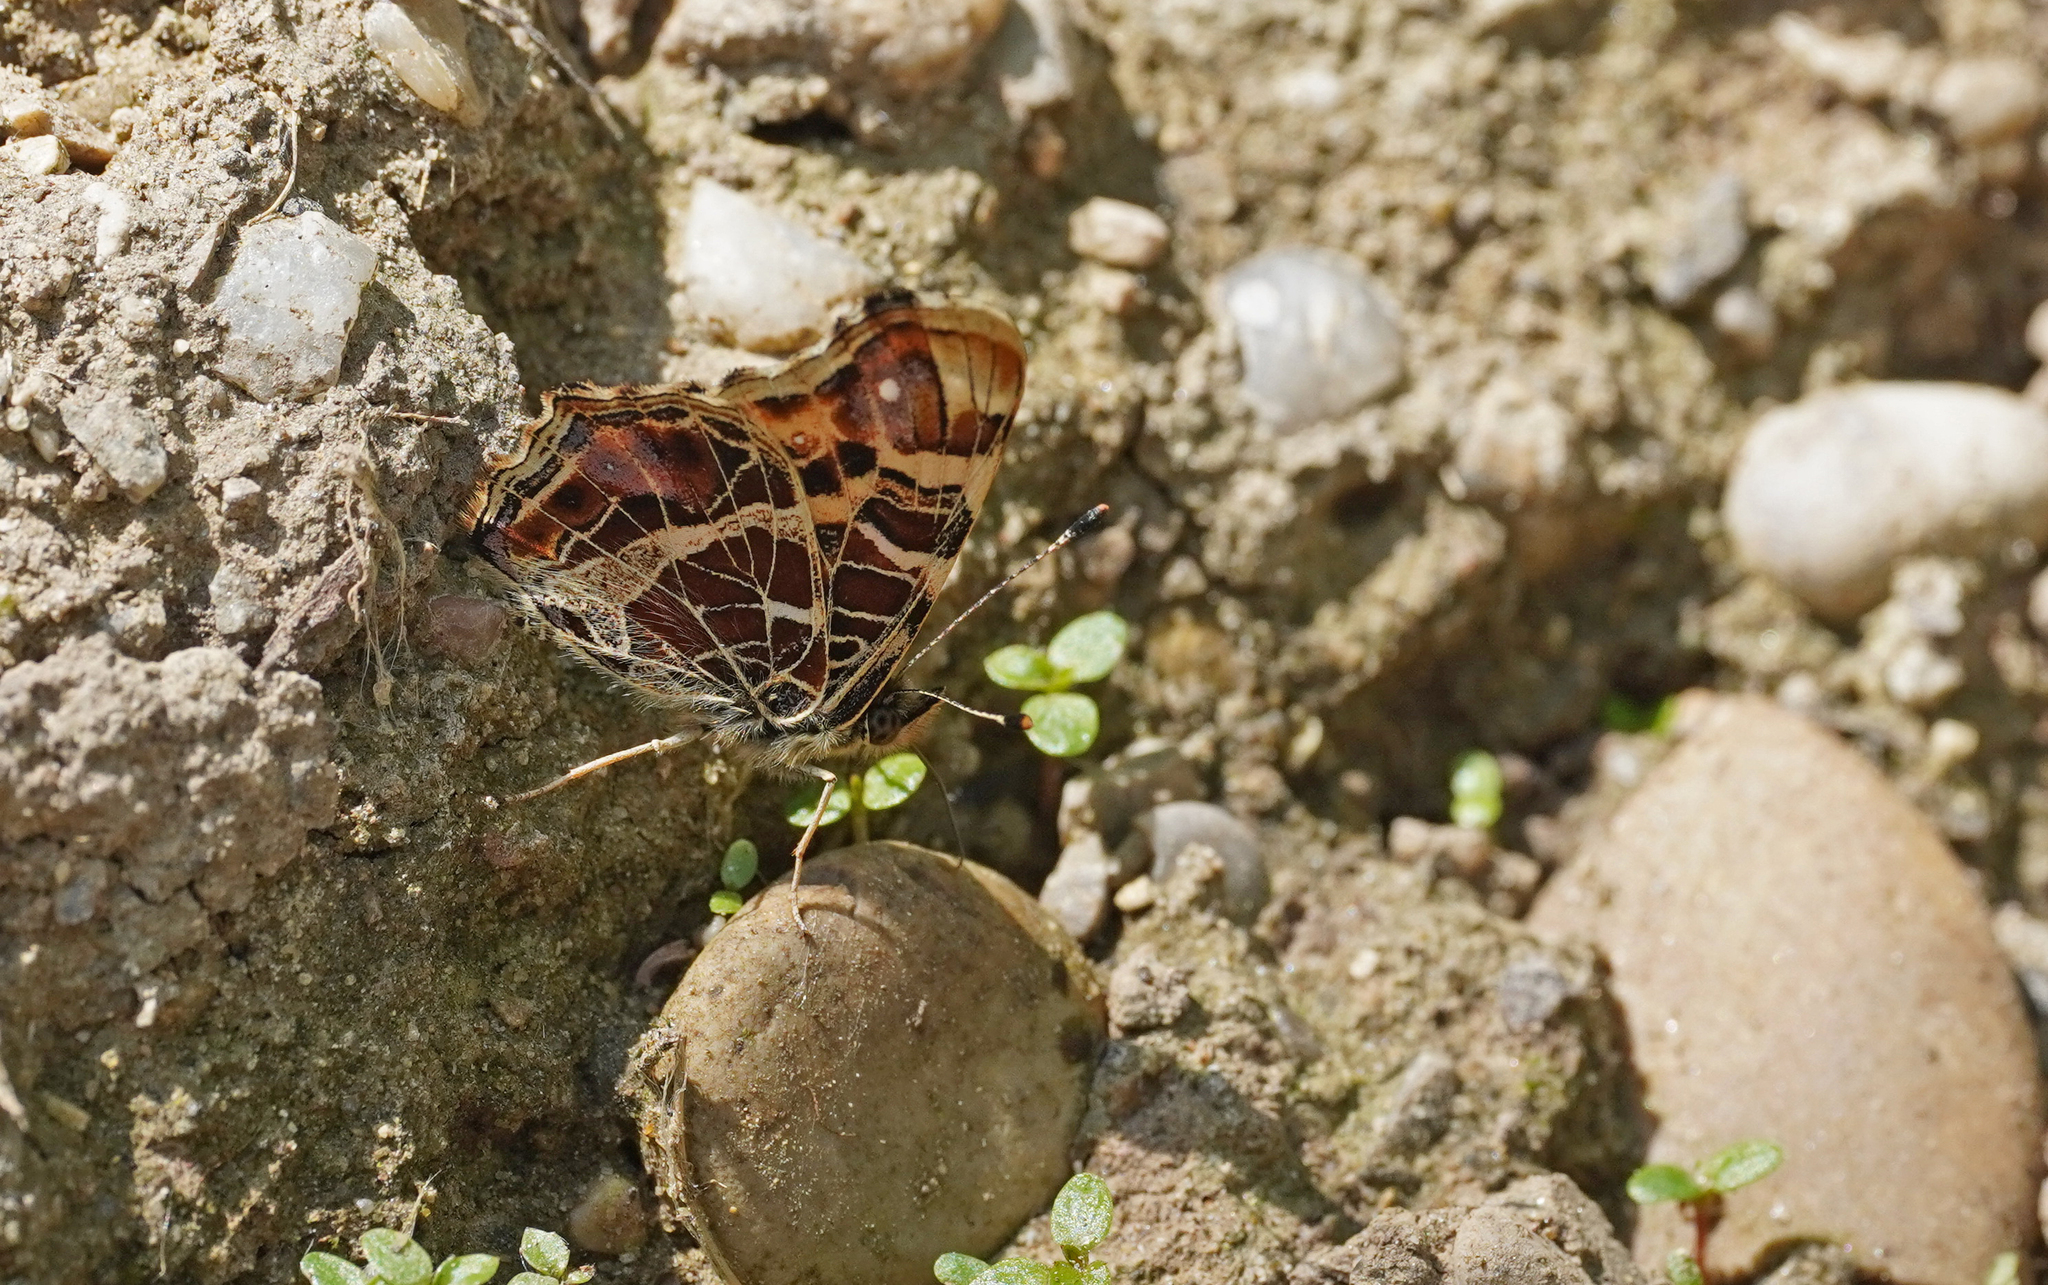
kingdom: Animalia
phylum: Arthropoda
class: Insecta
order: Lepidoptera
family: Nymphalidae
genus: Araschnia
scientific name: Araschnia levana
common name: Map butterfly
